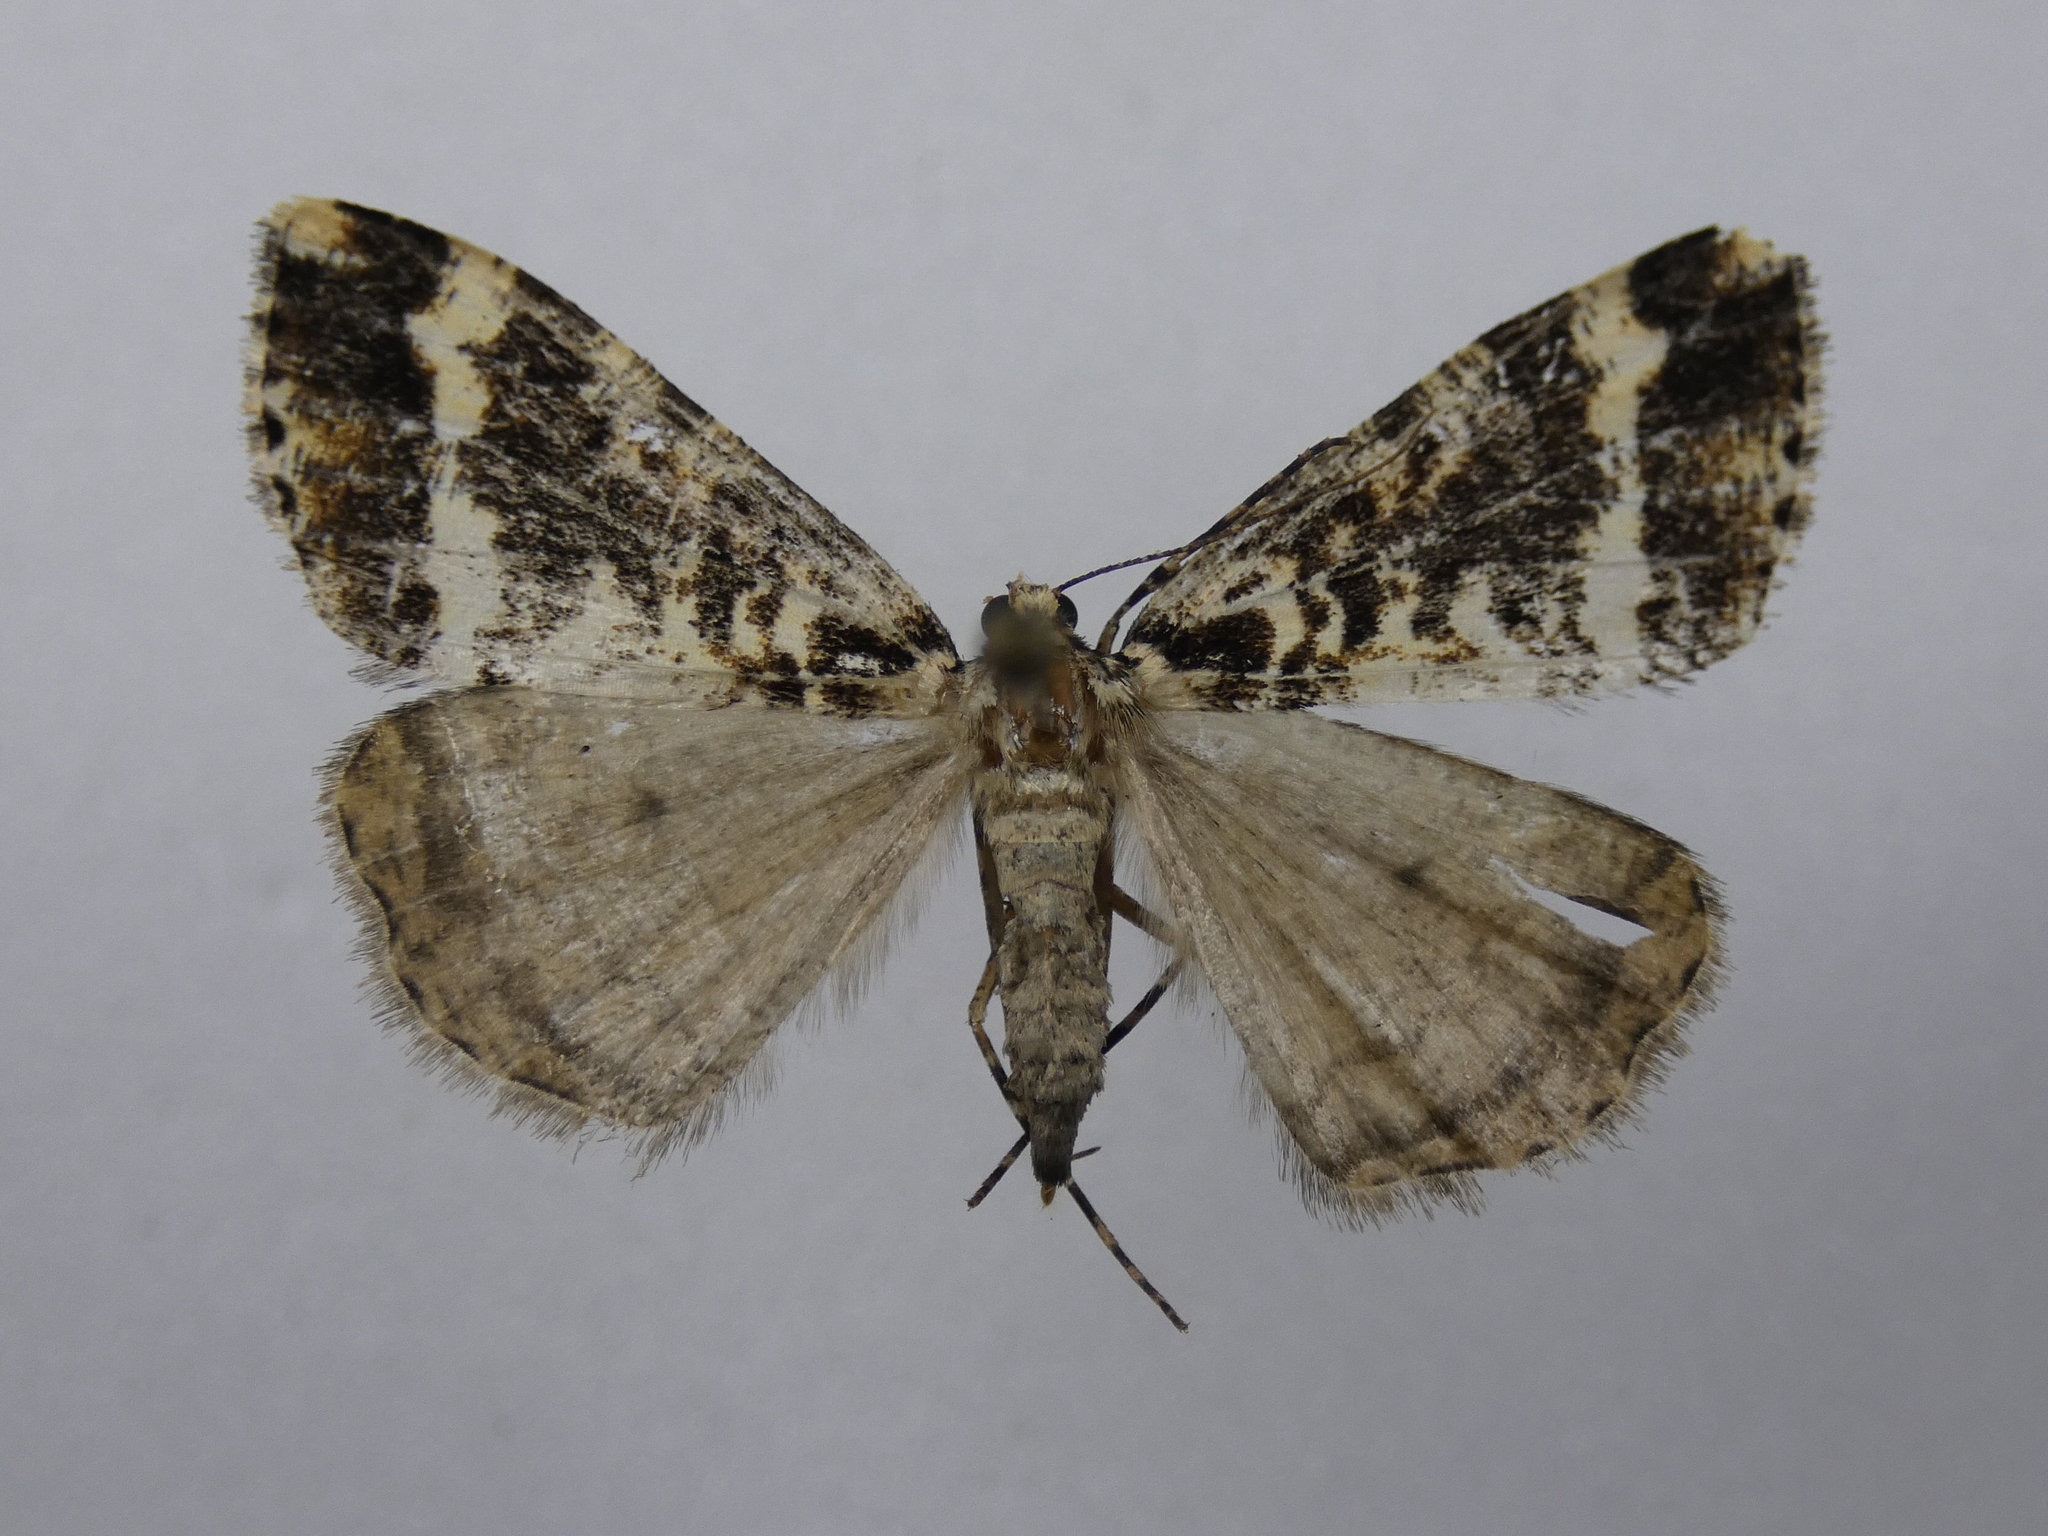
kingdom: Animalia
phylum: Arthropoda
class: Insecta
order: Lepidoptera
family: Geometridae
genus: Pseudocoremia
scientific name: Pseudocoremia leucelaea
